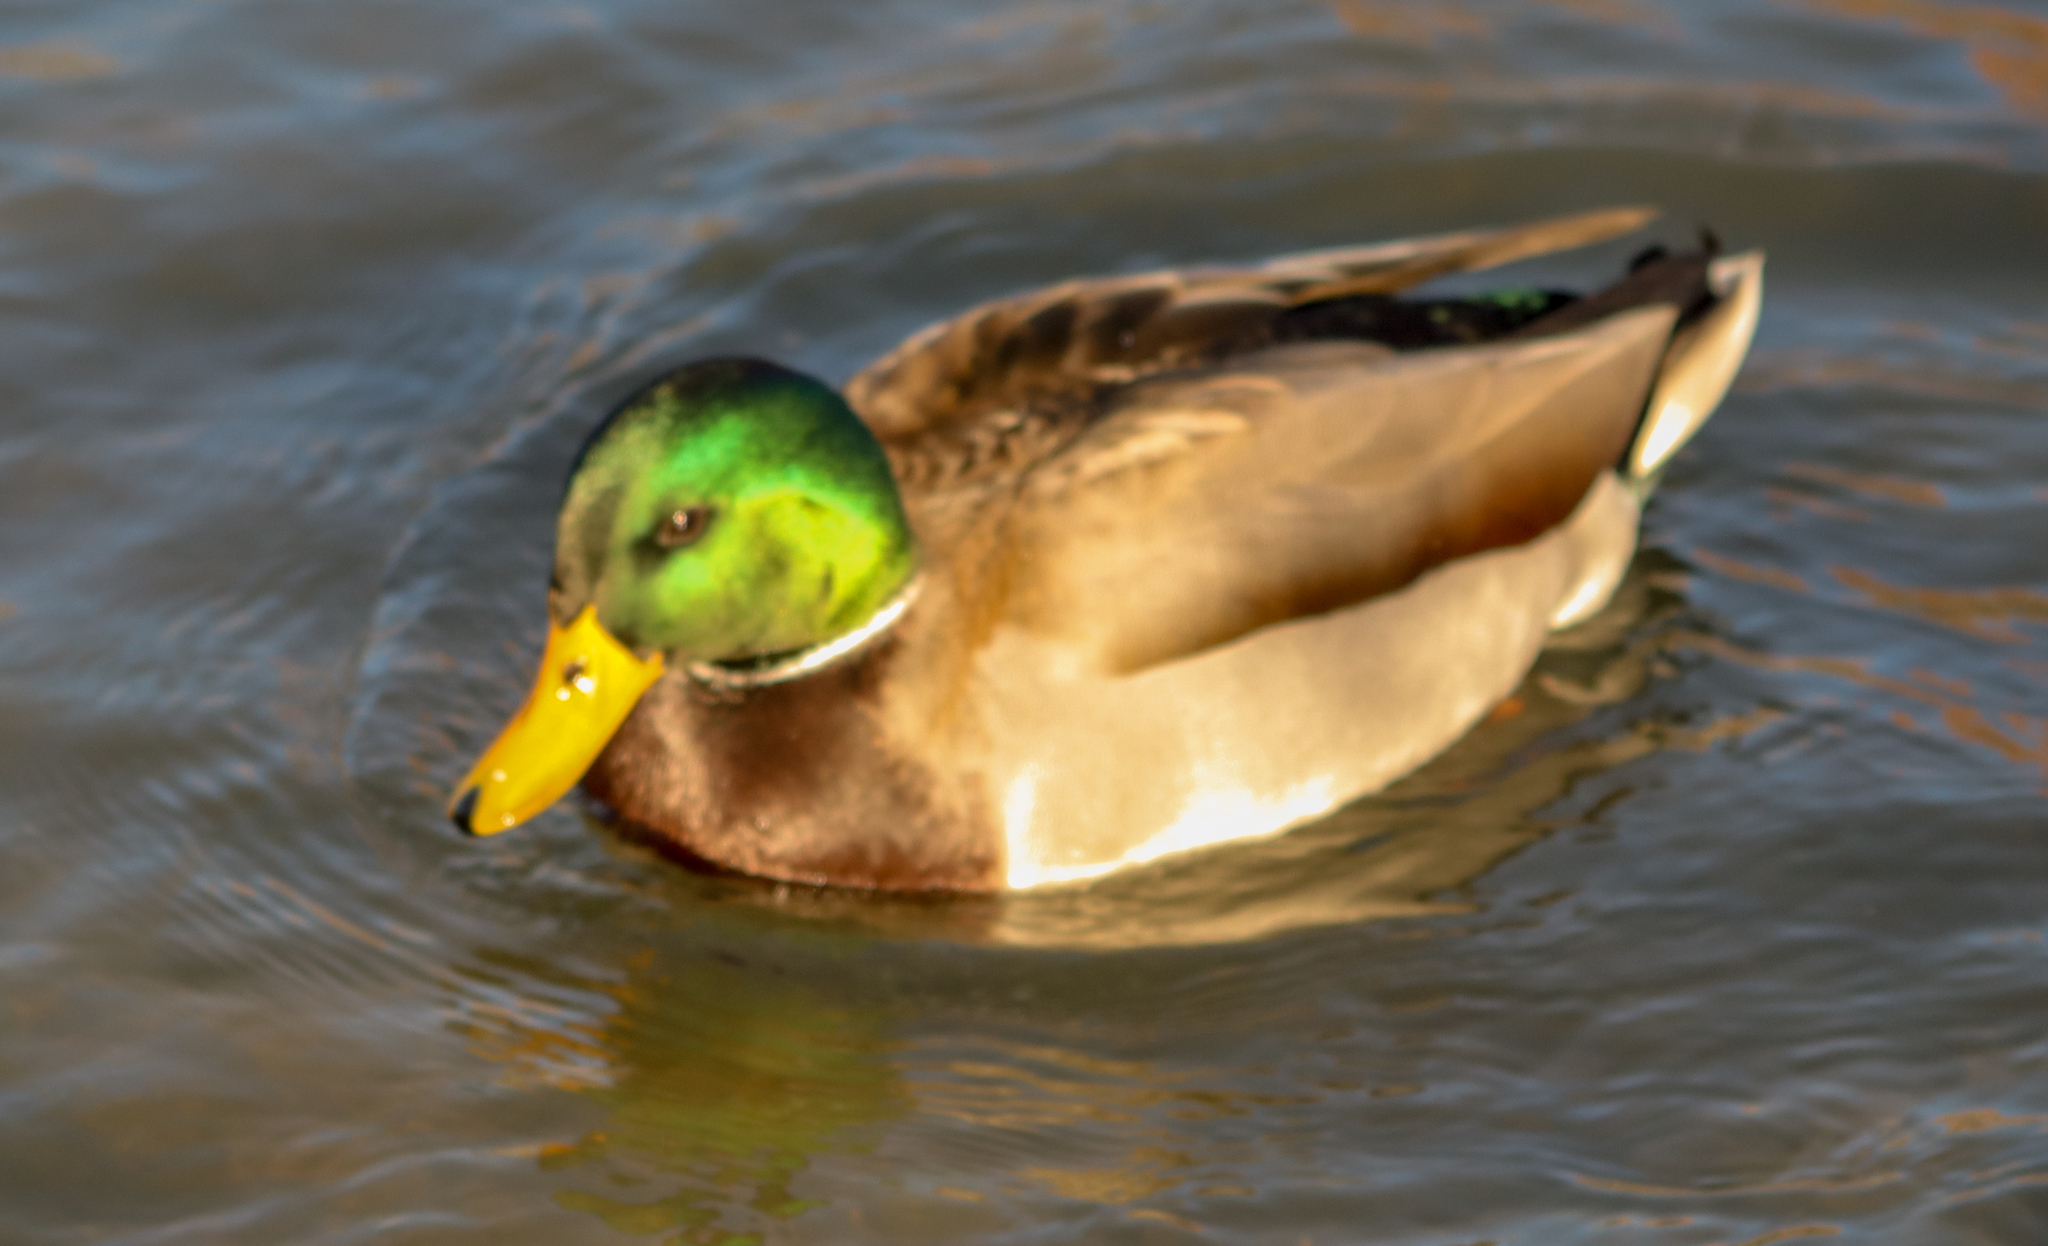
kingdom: Animalia
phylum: Chordata
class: Aves
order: Anseriformes
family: Anatidae
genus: Anas
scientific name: Anas platyrhynchos
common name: Mallard
